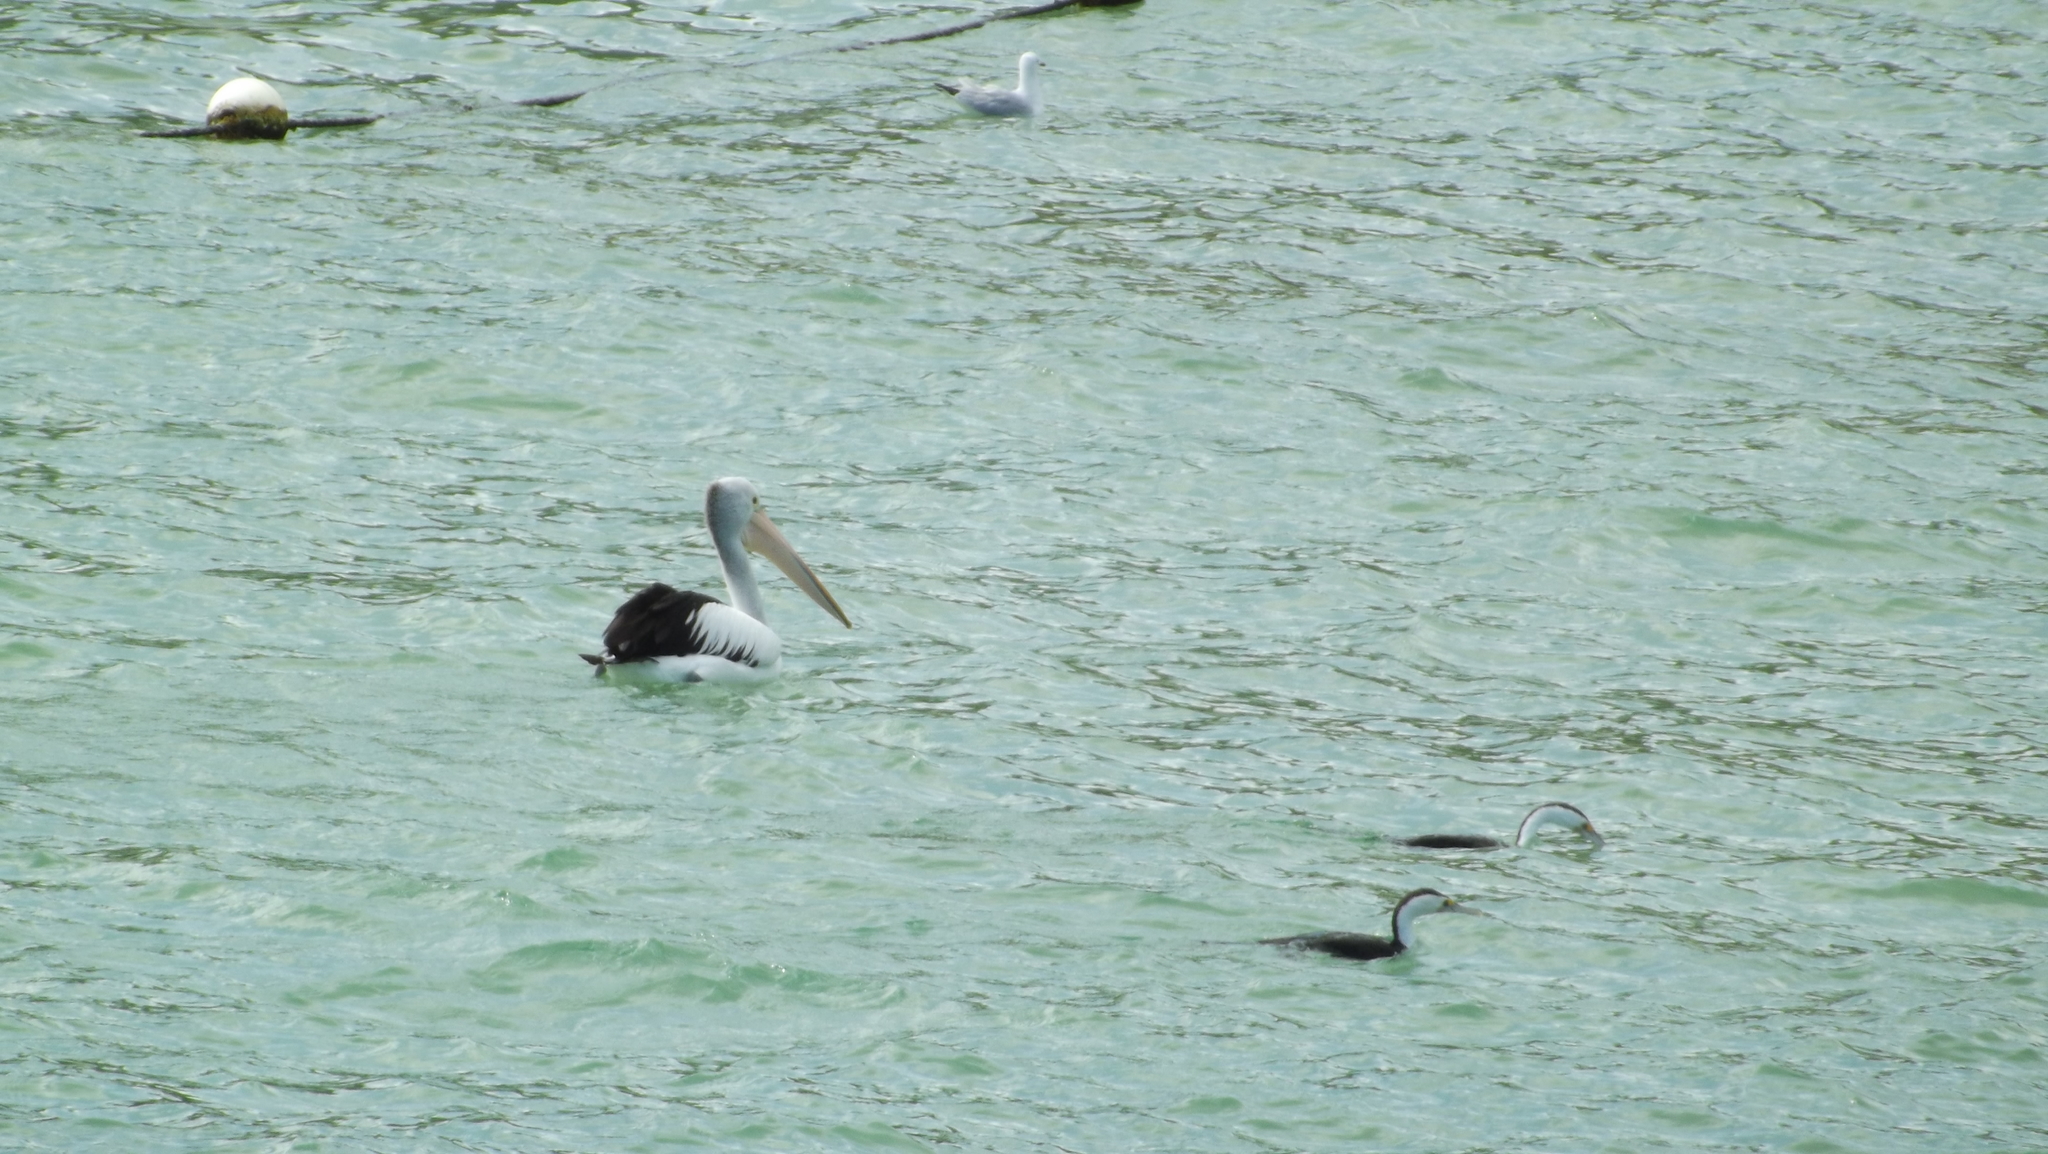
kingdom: Animalia
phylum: Chordata
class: Aves
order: Pelecaniformes
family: Pelecanidae
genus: Pelecanus
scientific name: Pelecanus conspicillatus
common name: Australian pelican
